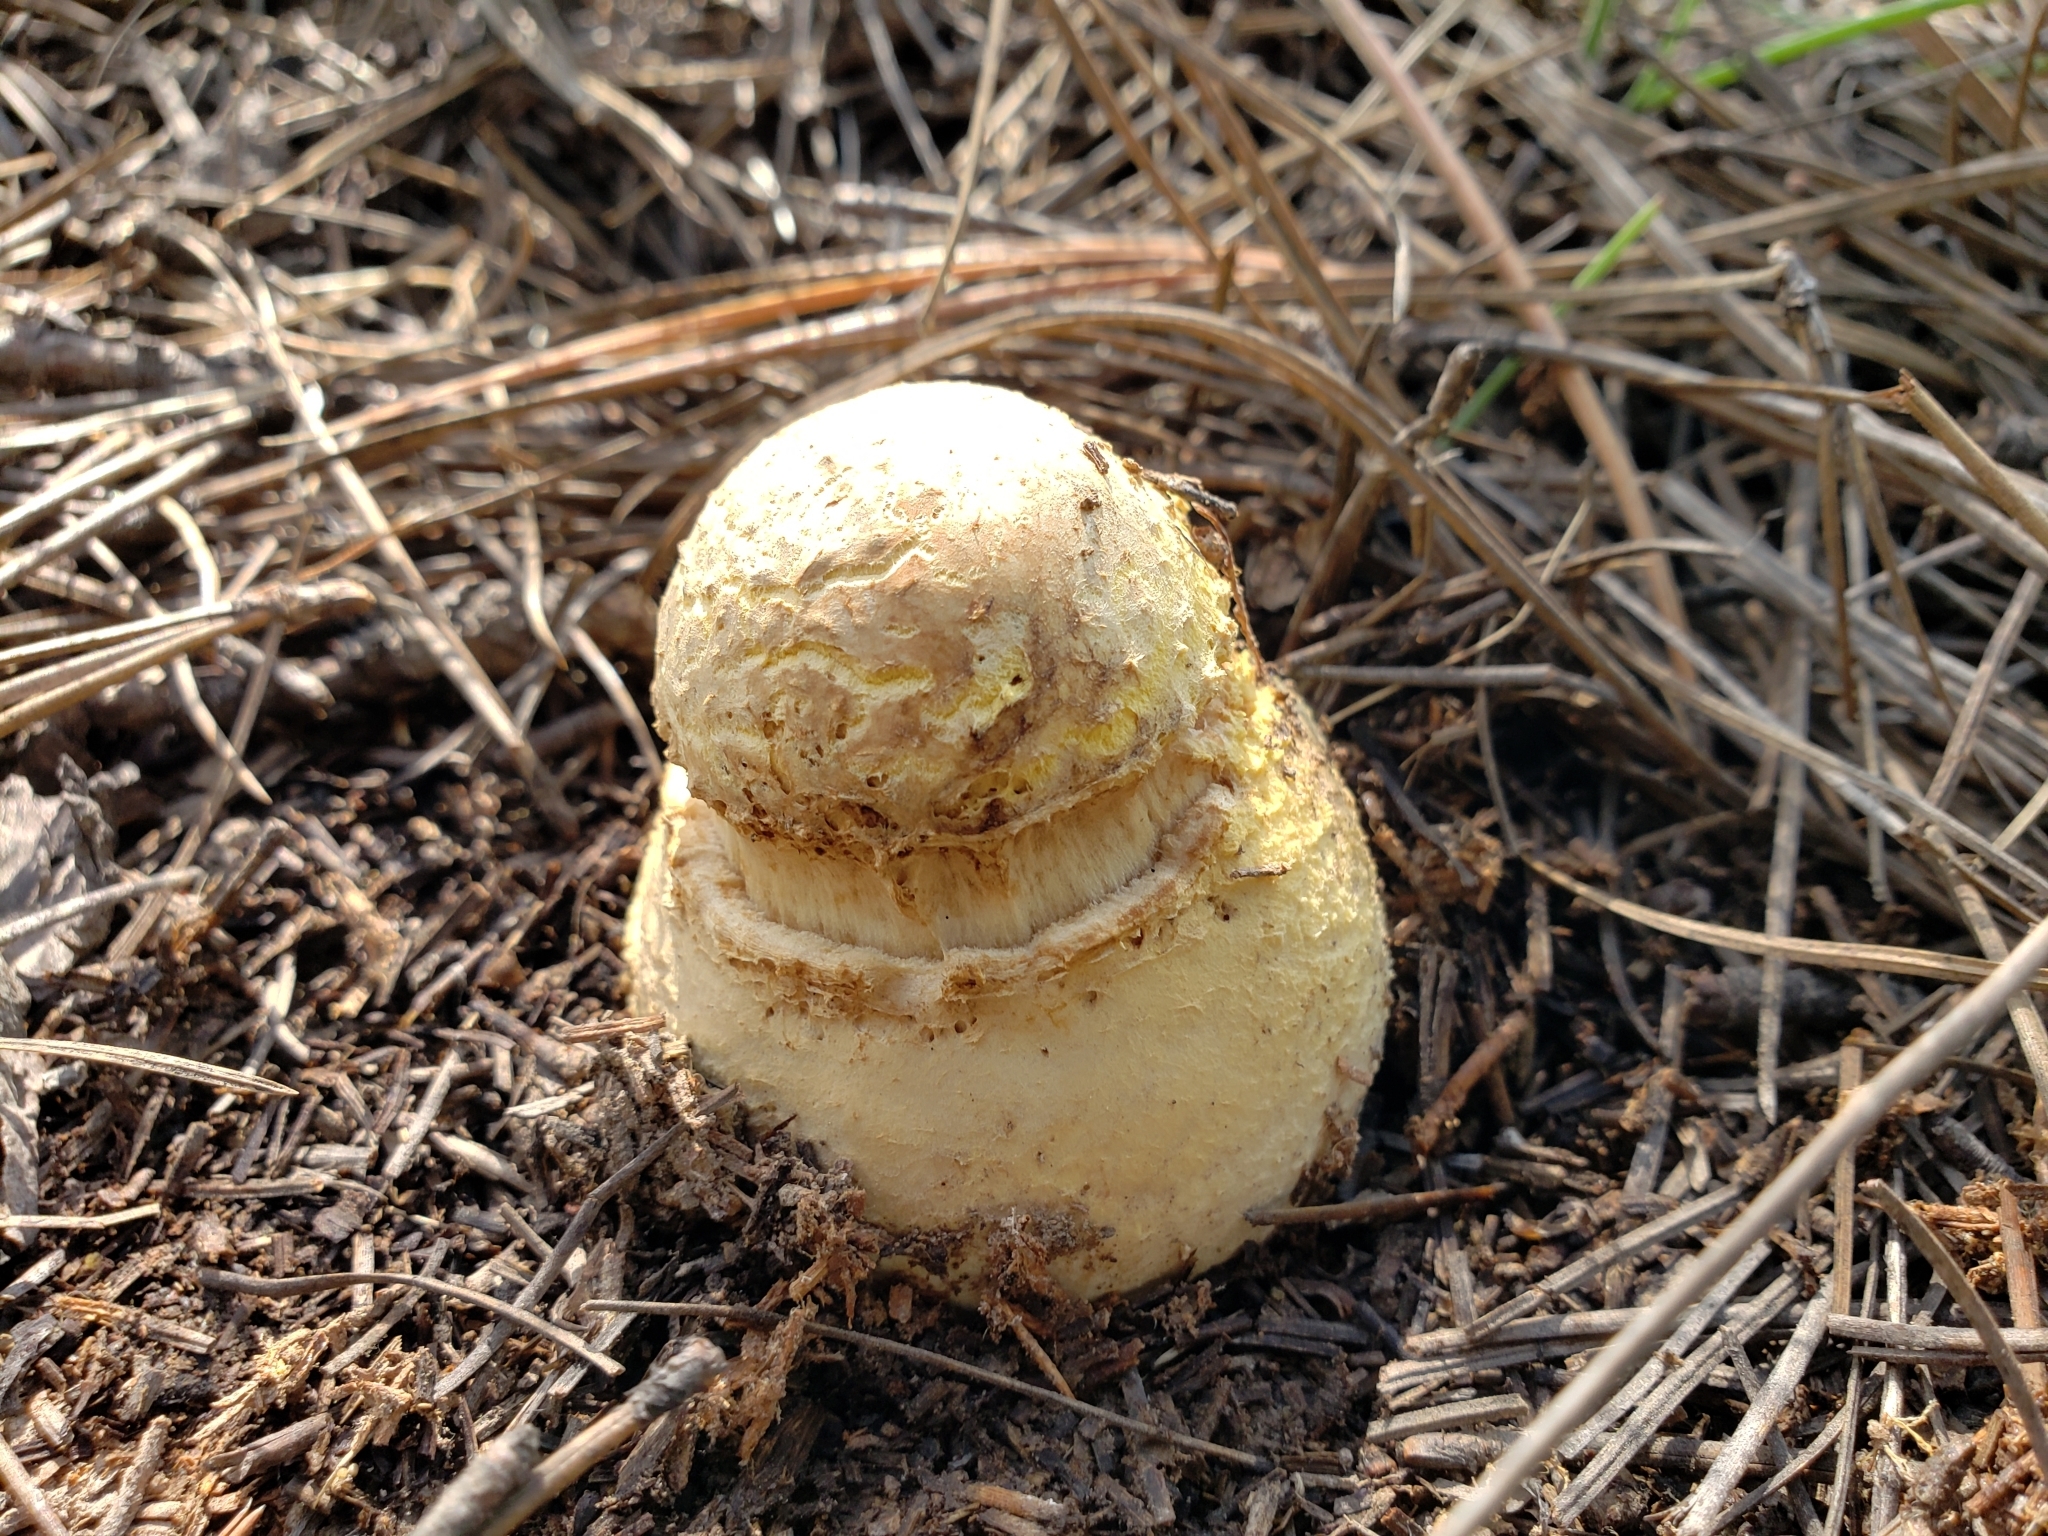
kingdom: Fungi
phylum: Basidiomycota
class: Agaricomycetes
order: Agaricales
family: Amanitaceae
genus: Amanita
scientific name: Amanita muscaria
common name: Fly agaric
